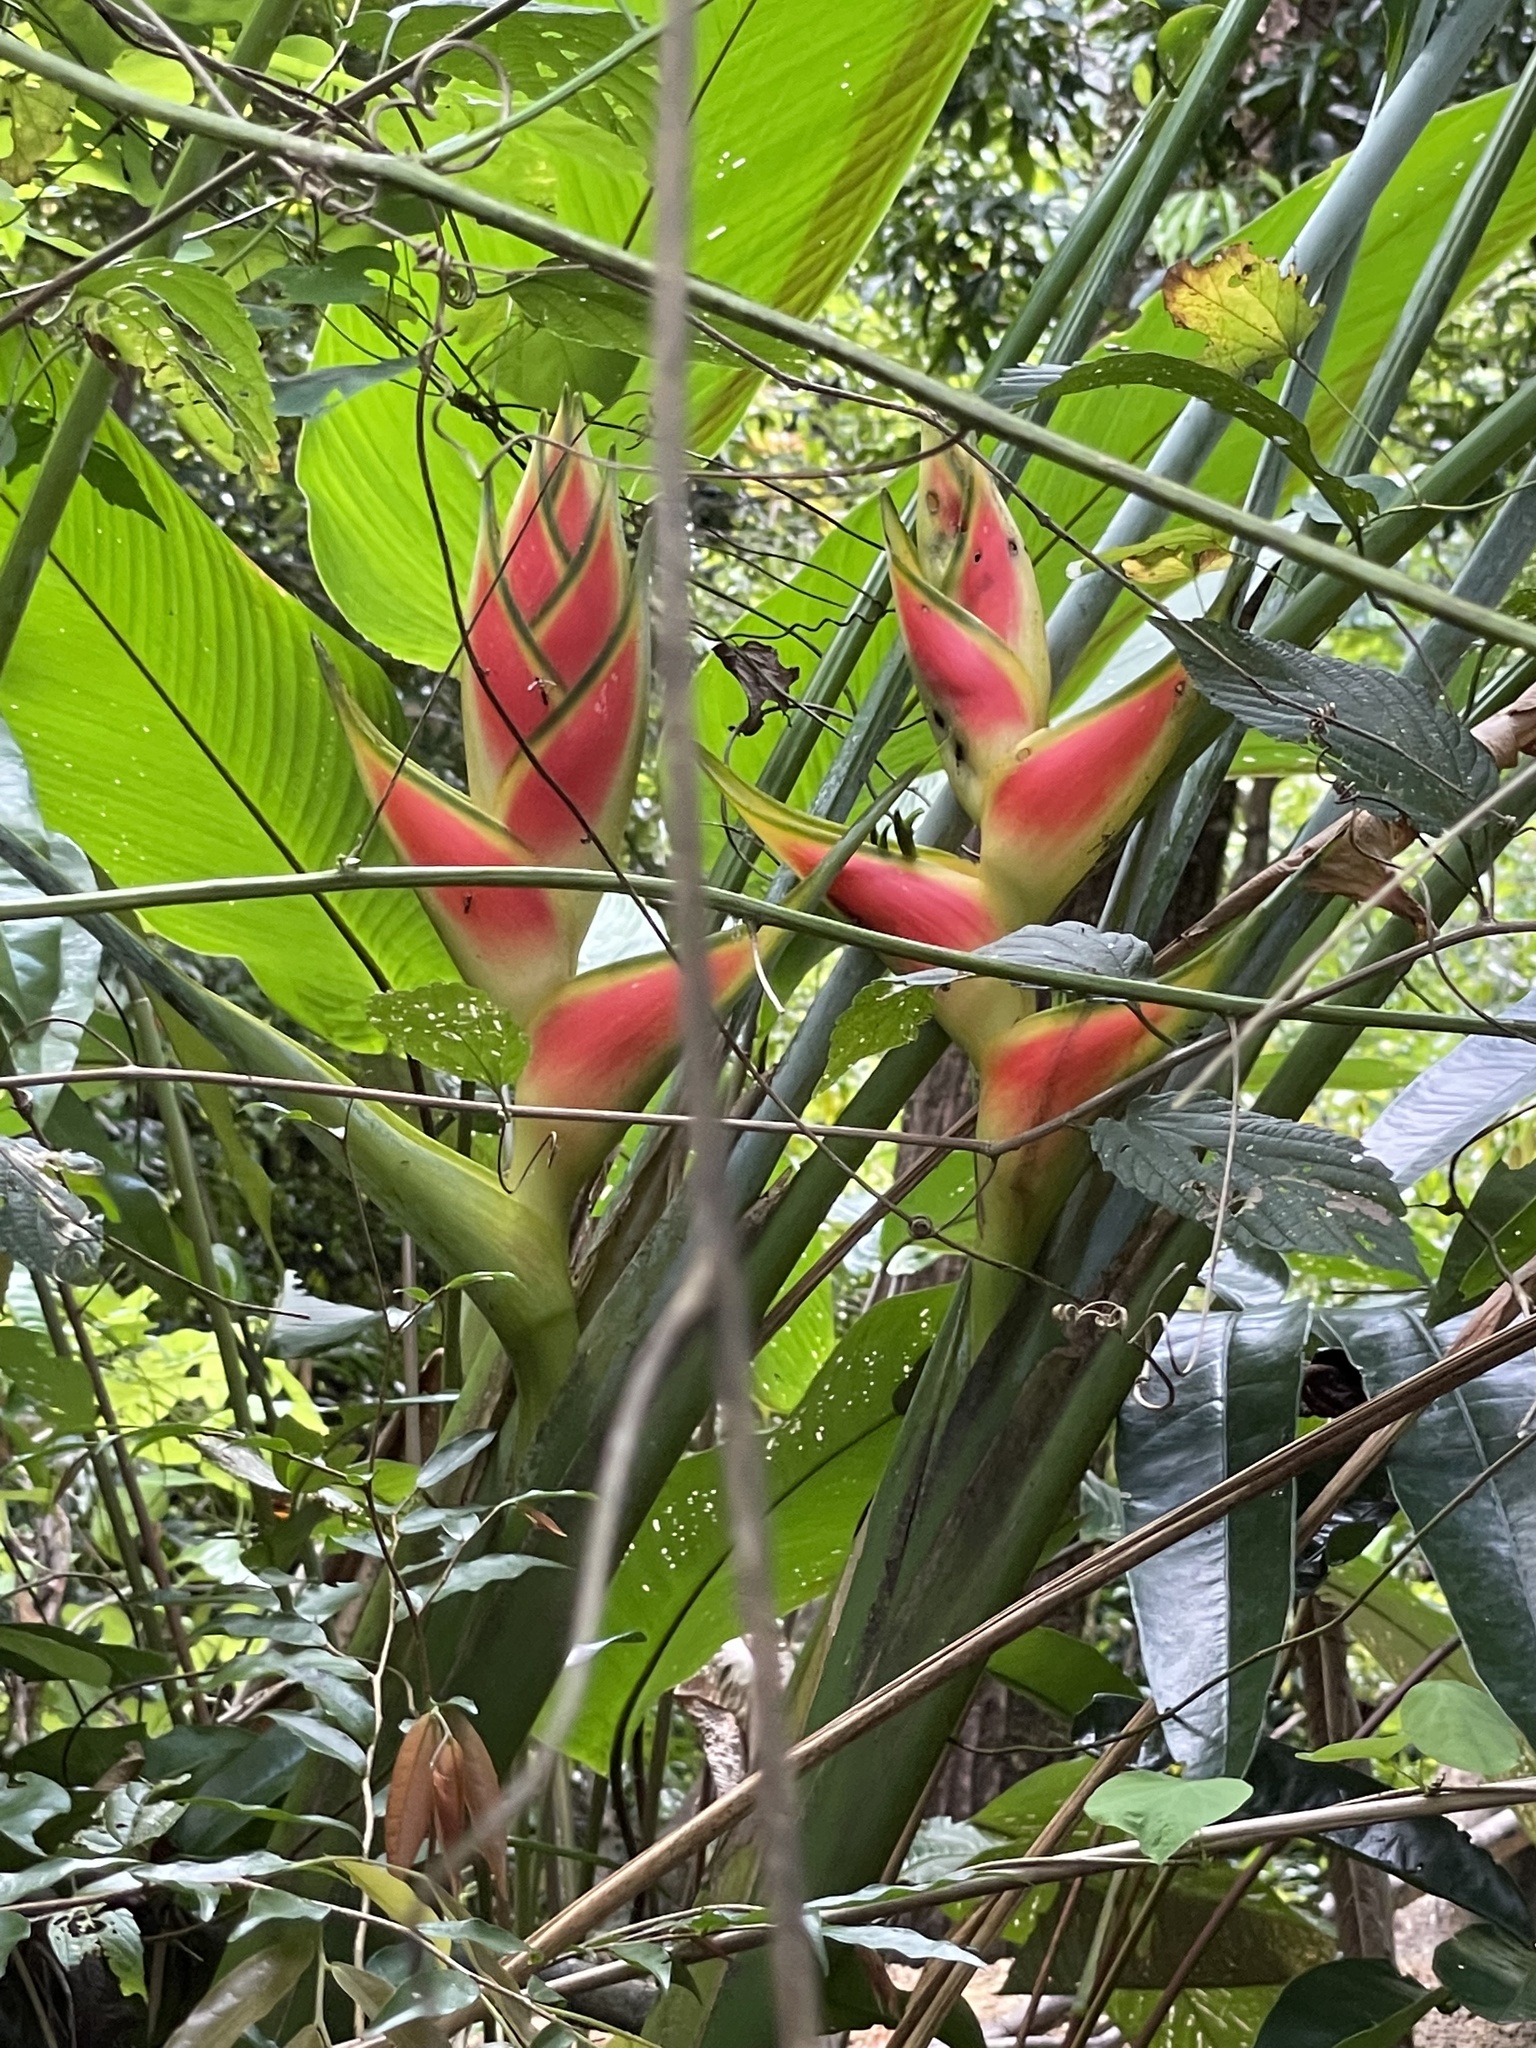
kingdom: Plantae
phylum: Tracheophyta
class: Liliopsida
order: Zingiberales
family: Heliconiaceae
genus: Heliconia
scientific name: Heliconia wagneriana
